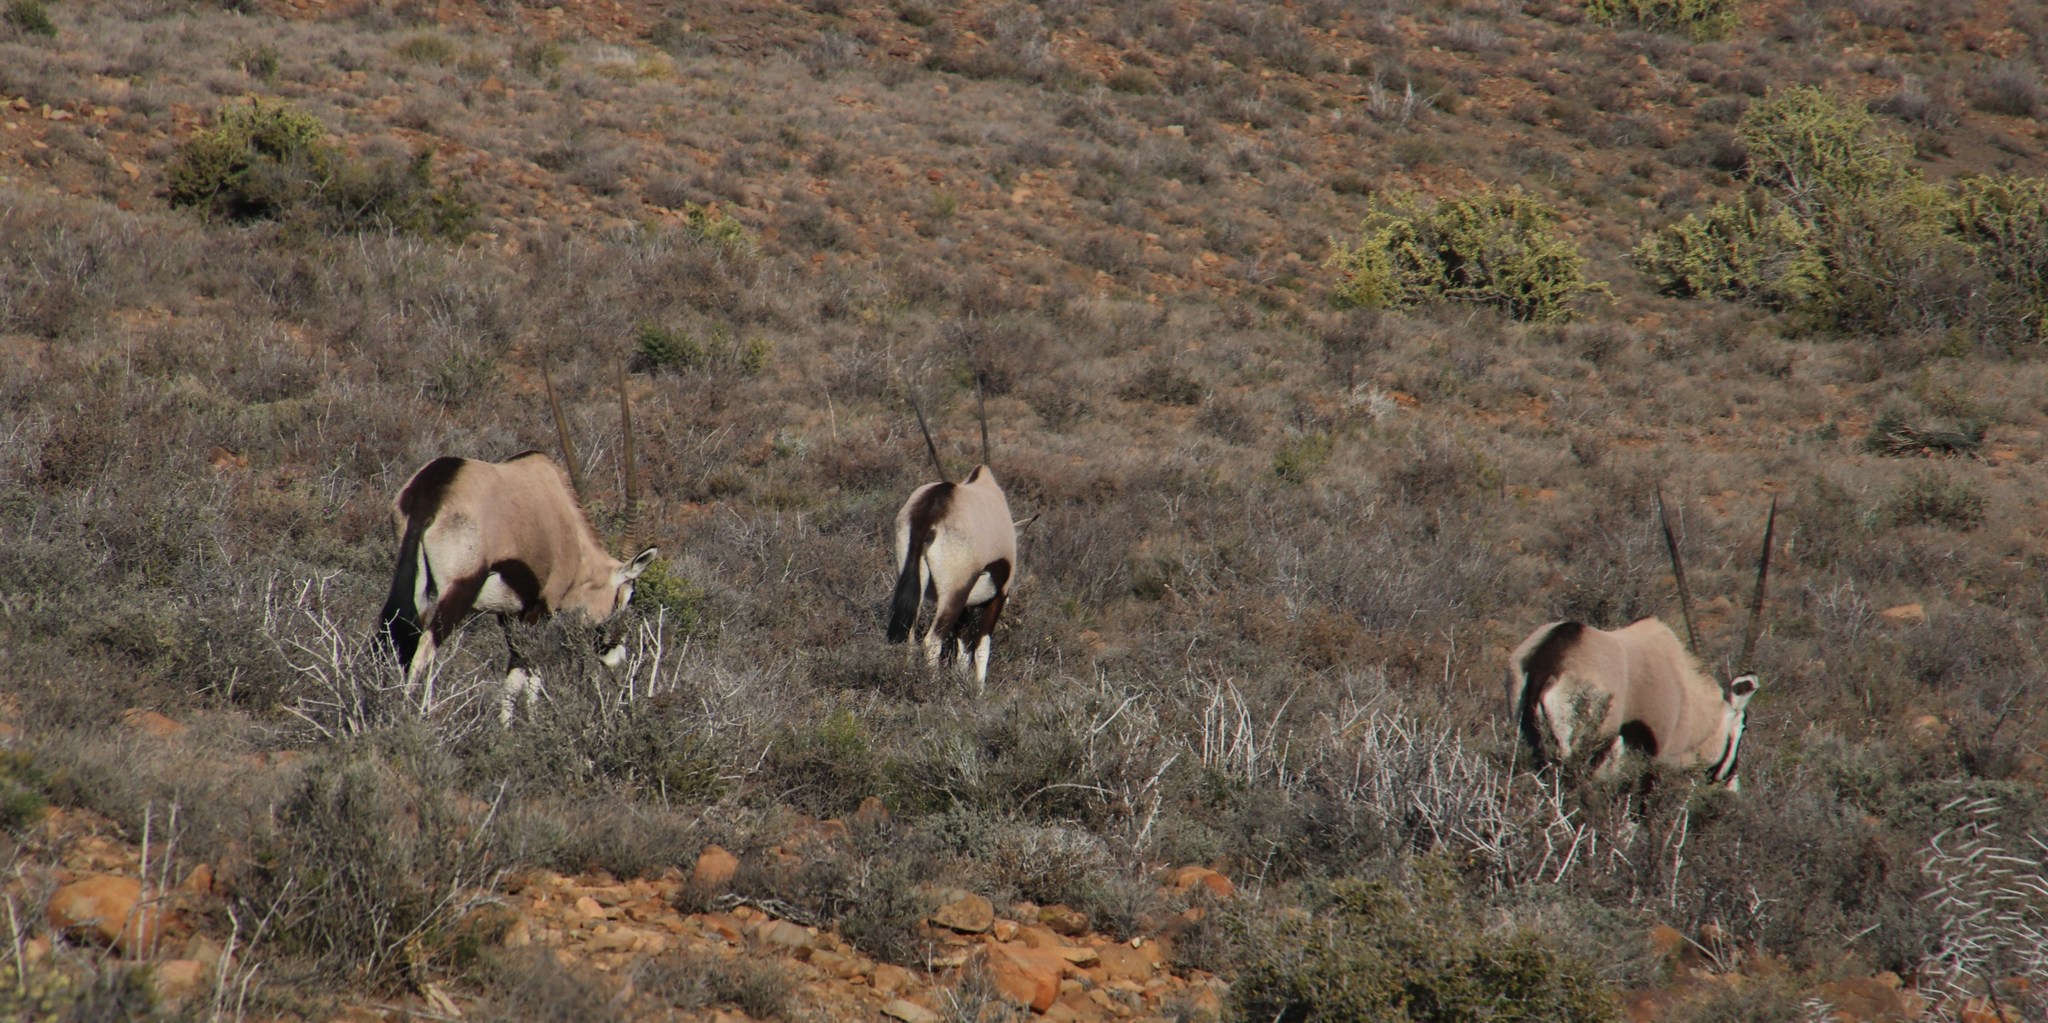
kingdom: Animalia
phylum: Chordata
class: Mammalia
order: Artiodactyla
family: Bovidae
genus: Oryx
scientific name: Oryx gazella
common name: Gemsbok
